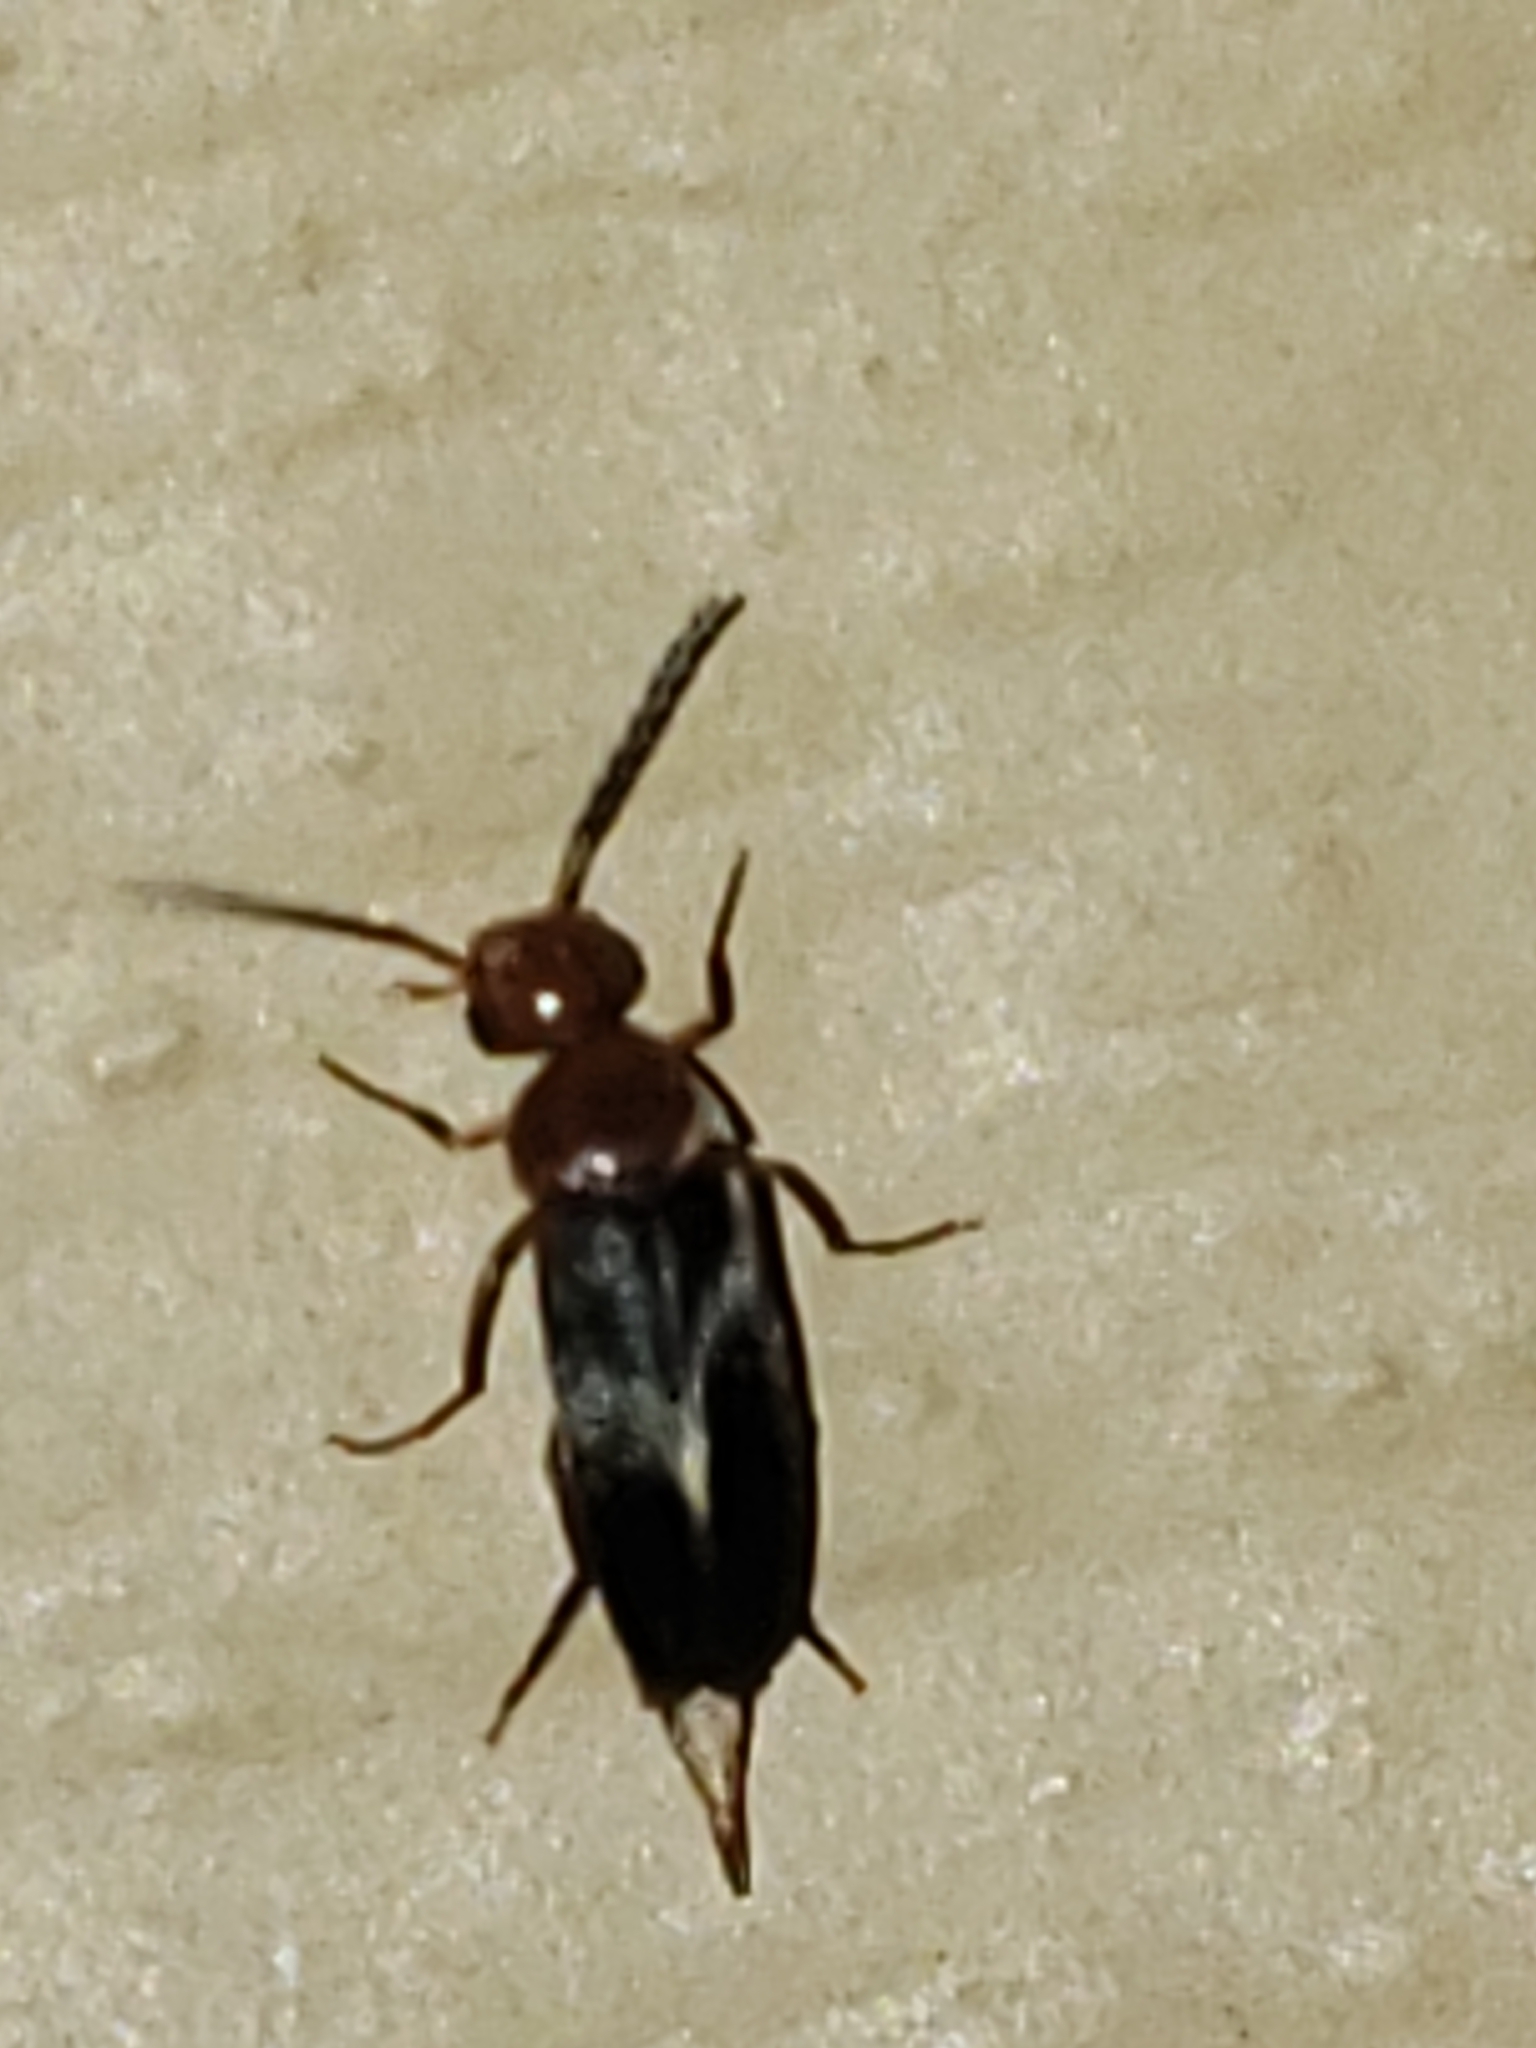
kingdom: Animalia
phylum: Arthropoda
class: Insecta
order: Coleoptera
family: Mordellidae
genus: Mordellistena
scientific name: Mordellistena fuscipennis
